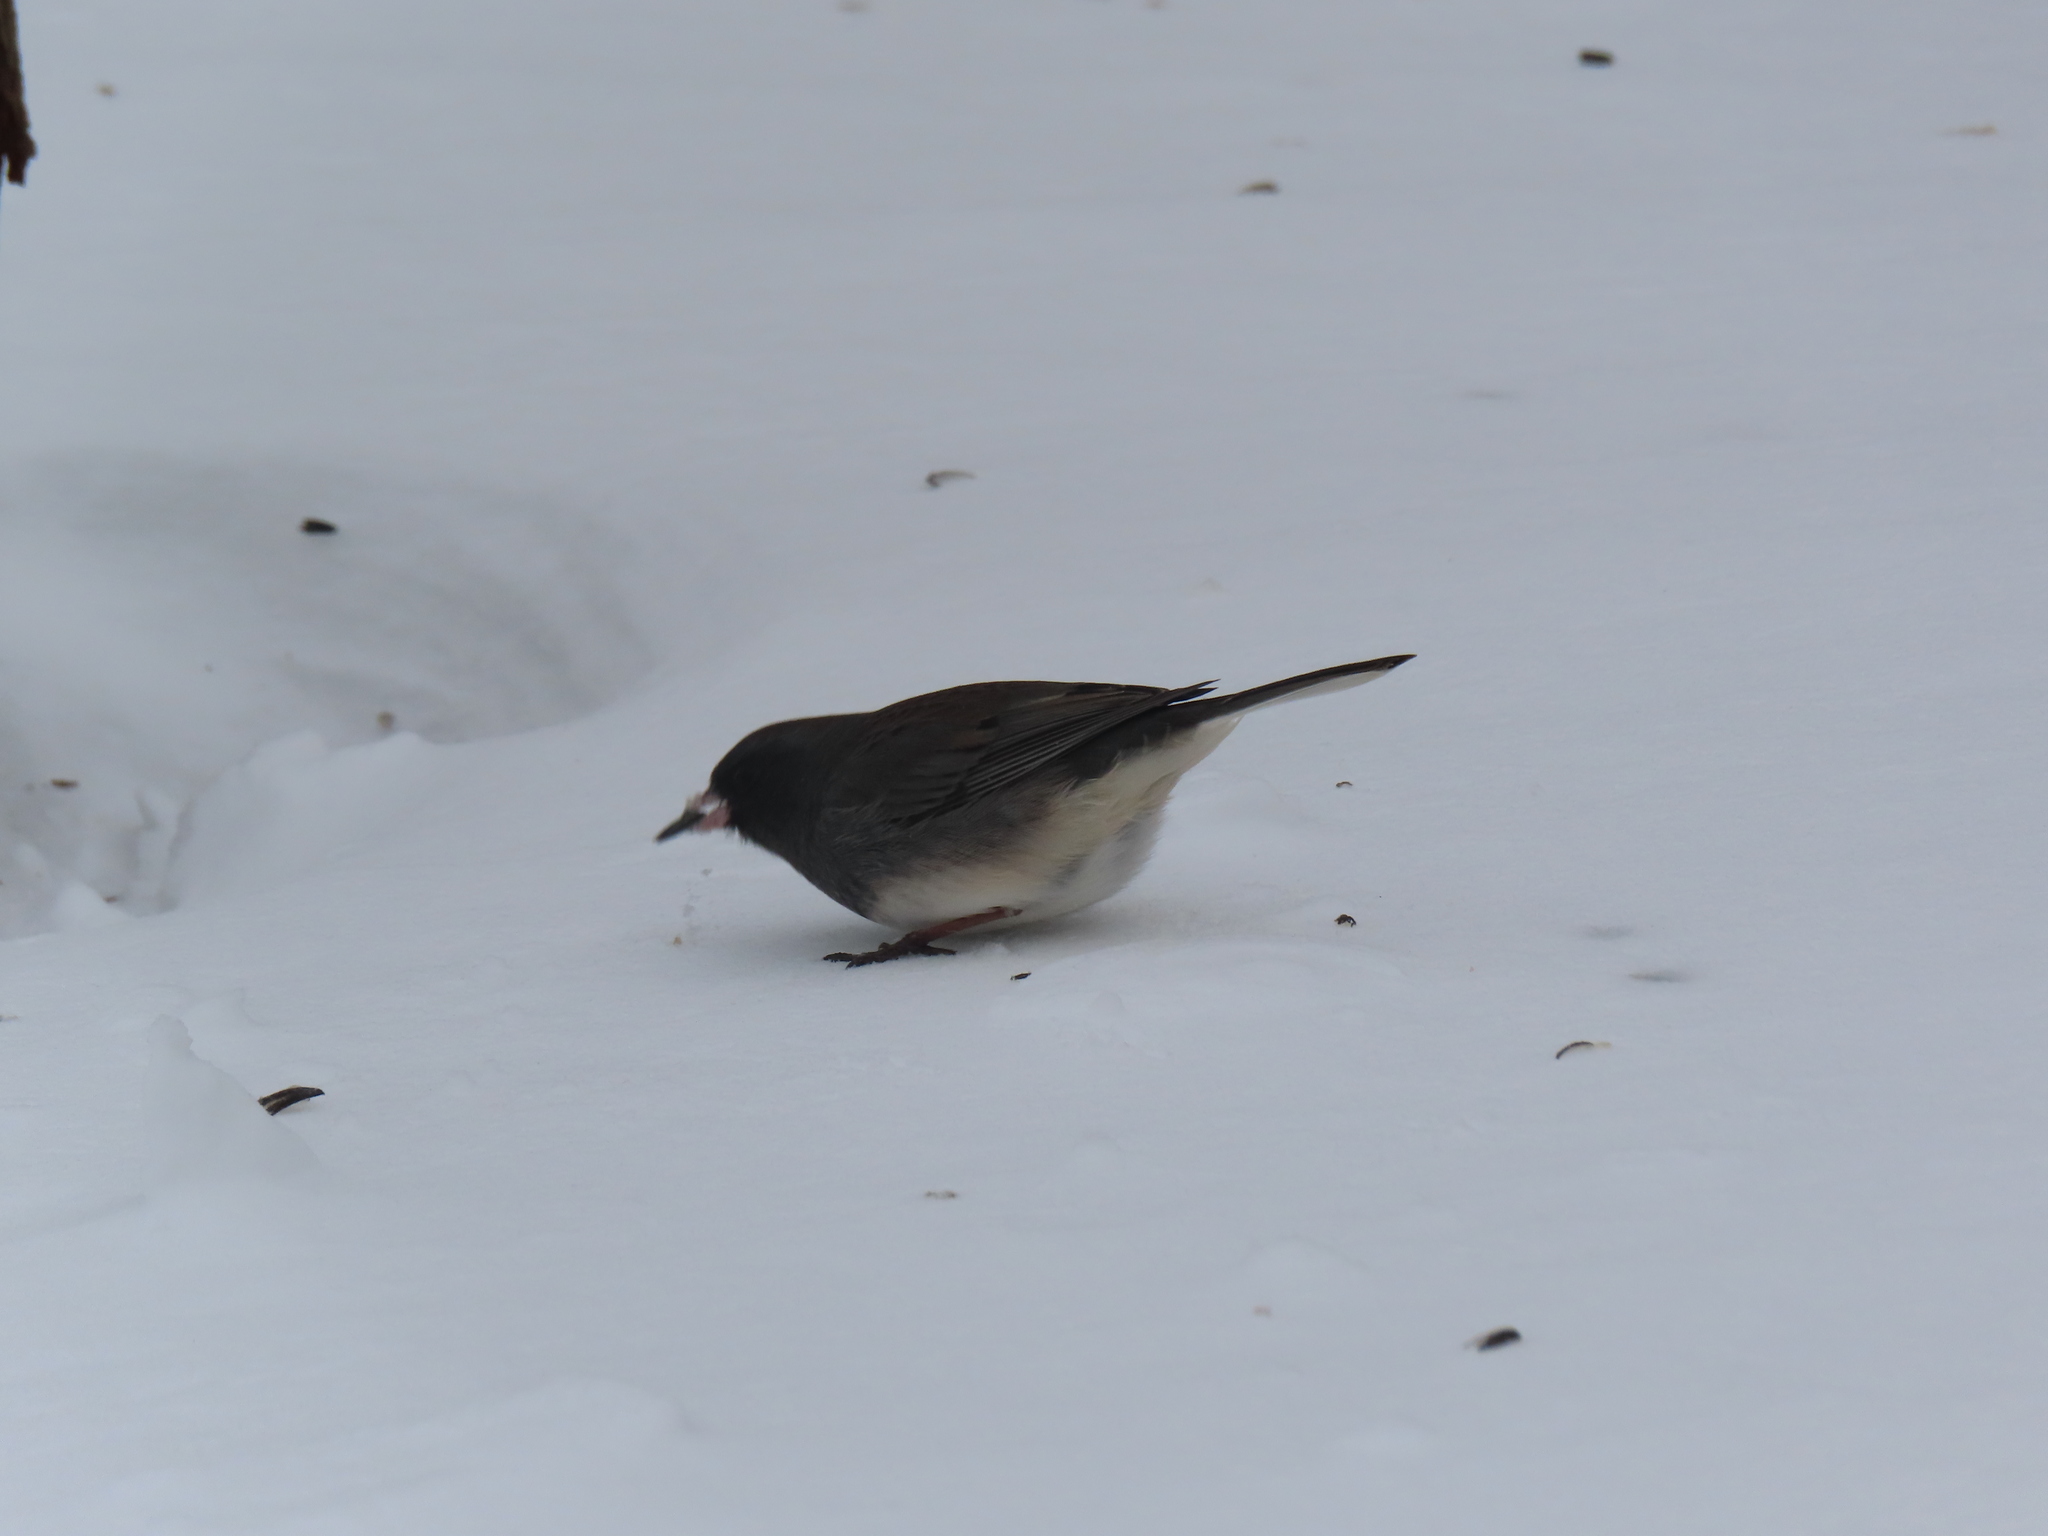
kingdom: Animalia
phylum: Chordata
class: Aves
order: Passeriformes
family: Passerellidae
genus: Junco
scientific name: Junco hyemalis
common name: Dark-eyed junco
